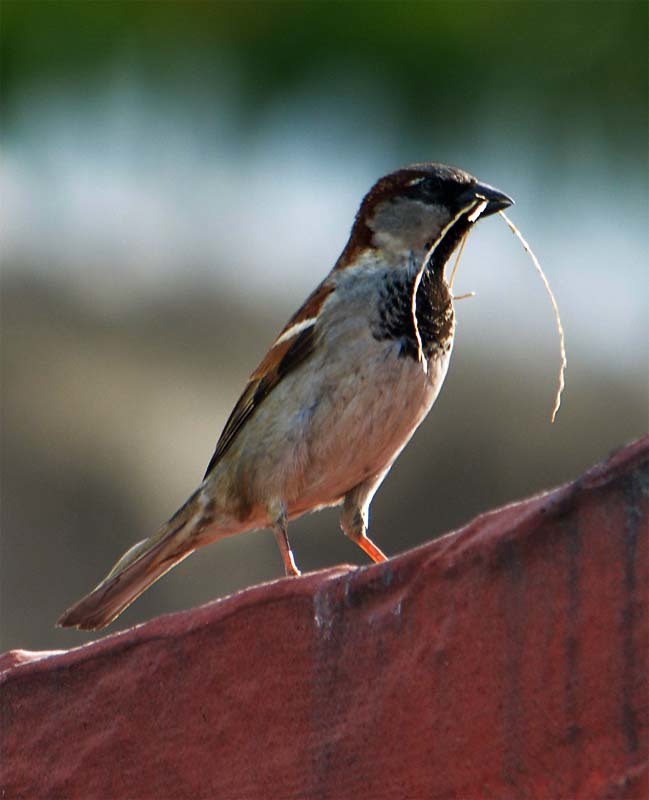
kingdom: Animalia
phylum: Chordata
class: Aves
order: Passeriformes
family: Passeridae
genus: Passer
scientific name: Passer domesticus
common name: House sparrow
